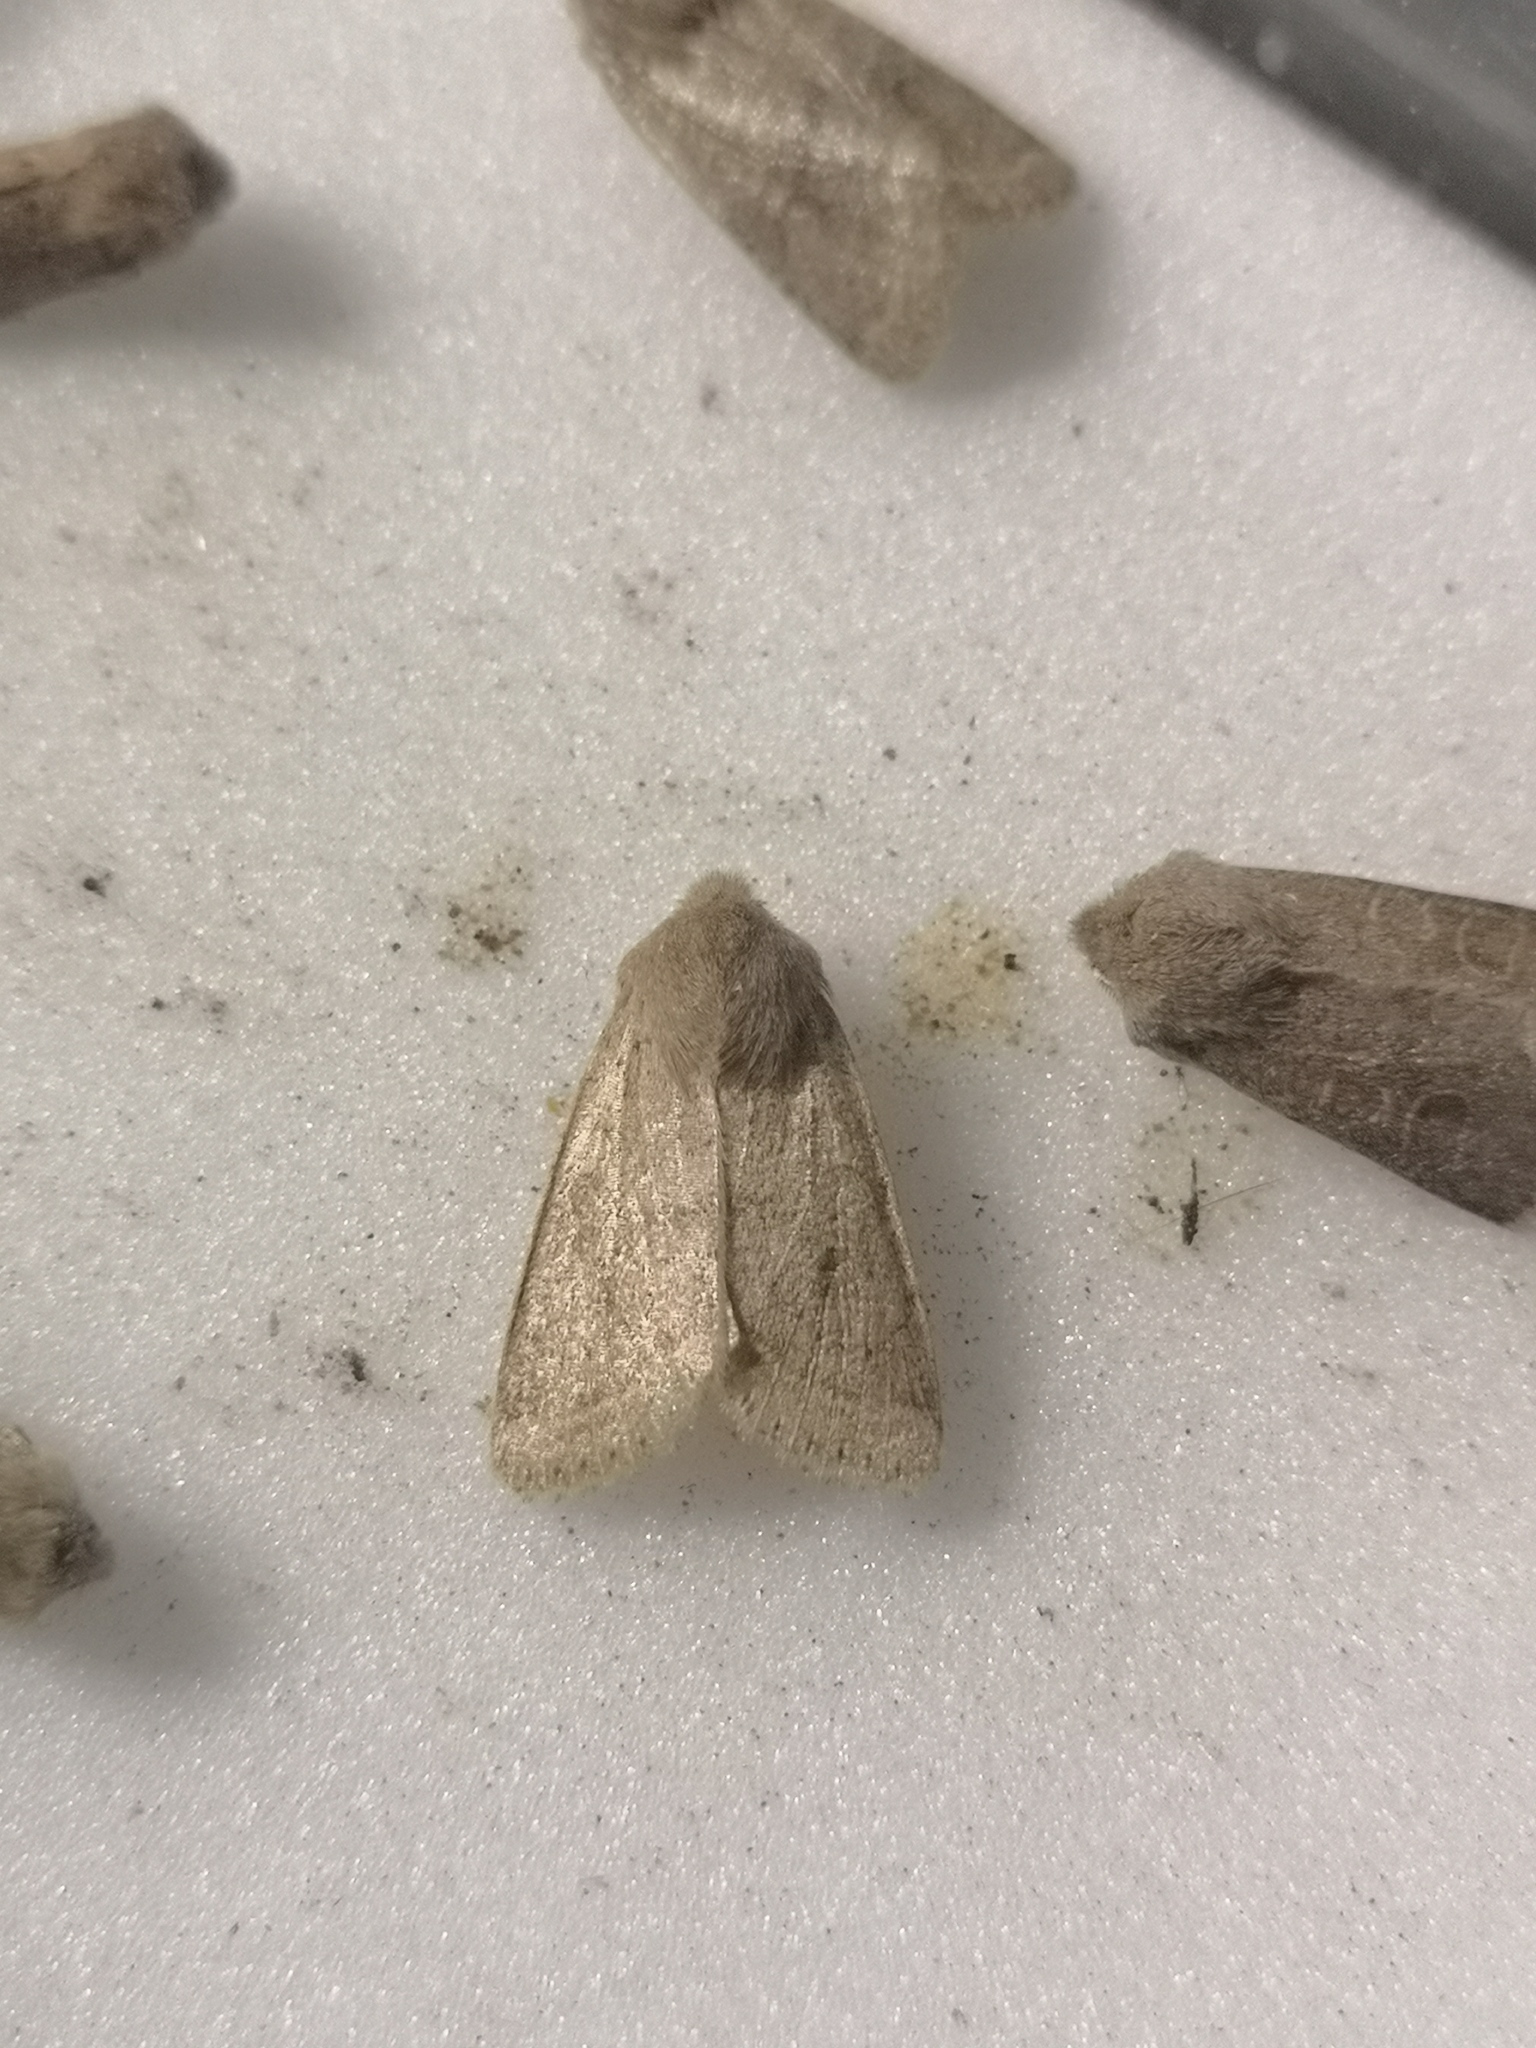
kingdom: Animalia
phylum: Arthropoda
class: Insecta
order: Lepidoptera
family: Noctuidae
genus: Orthosia
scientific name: Orthosia cerasi
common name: Common quaker
